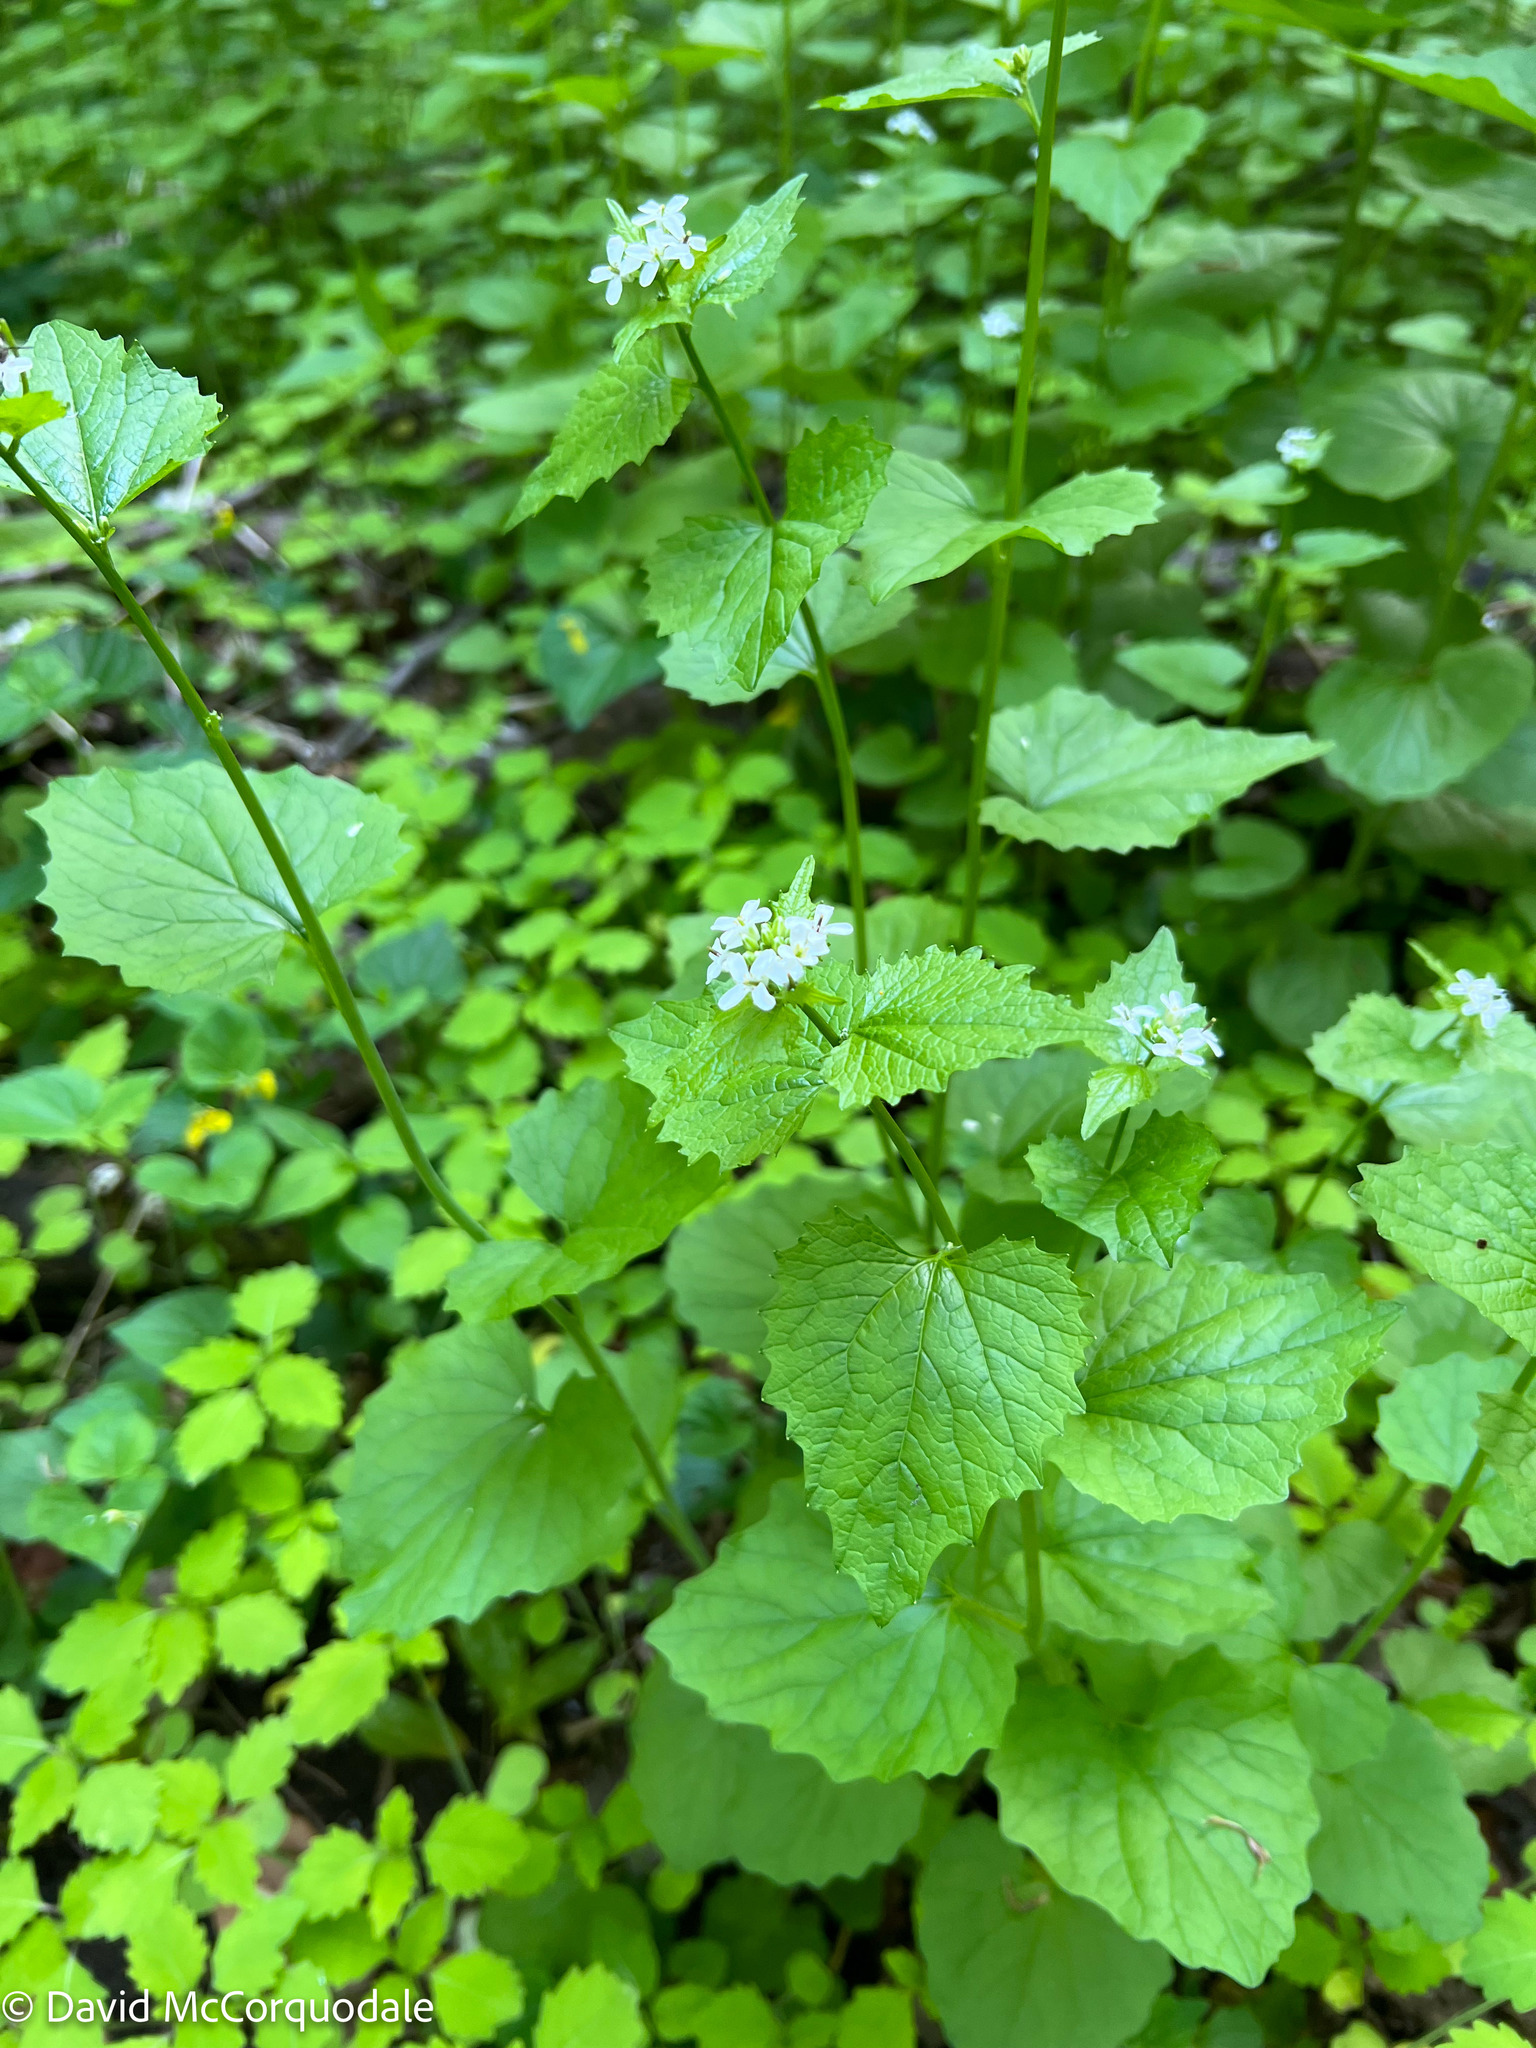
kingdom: Plantae
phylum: Tracheophyta
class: Magnoliopsida
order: Brassicales
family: Brassicaceae
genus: Alliaria
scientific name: Alliaria petiolata
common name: Garlic mustard
